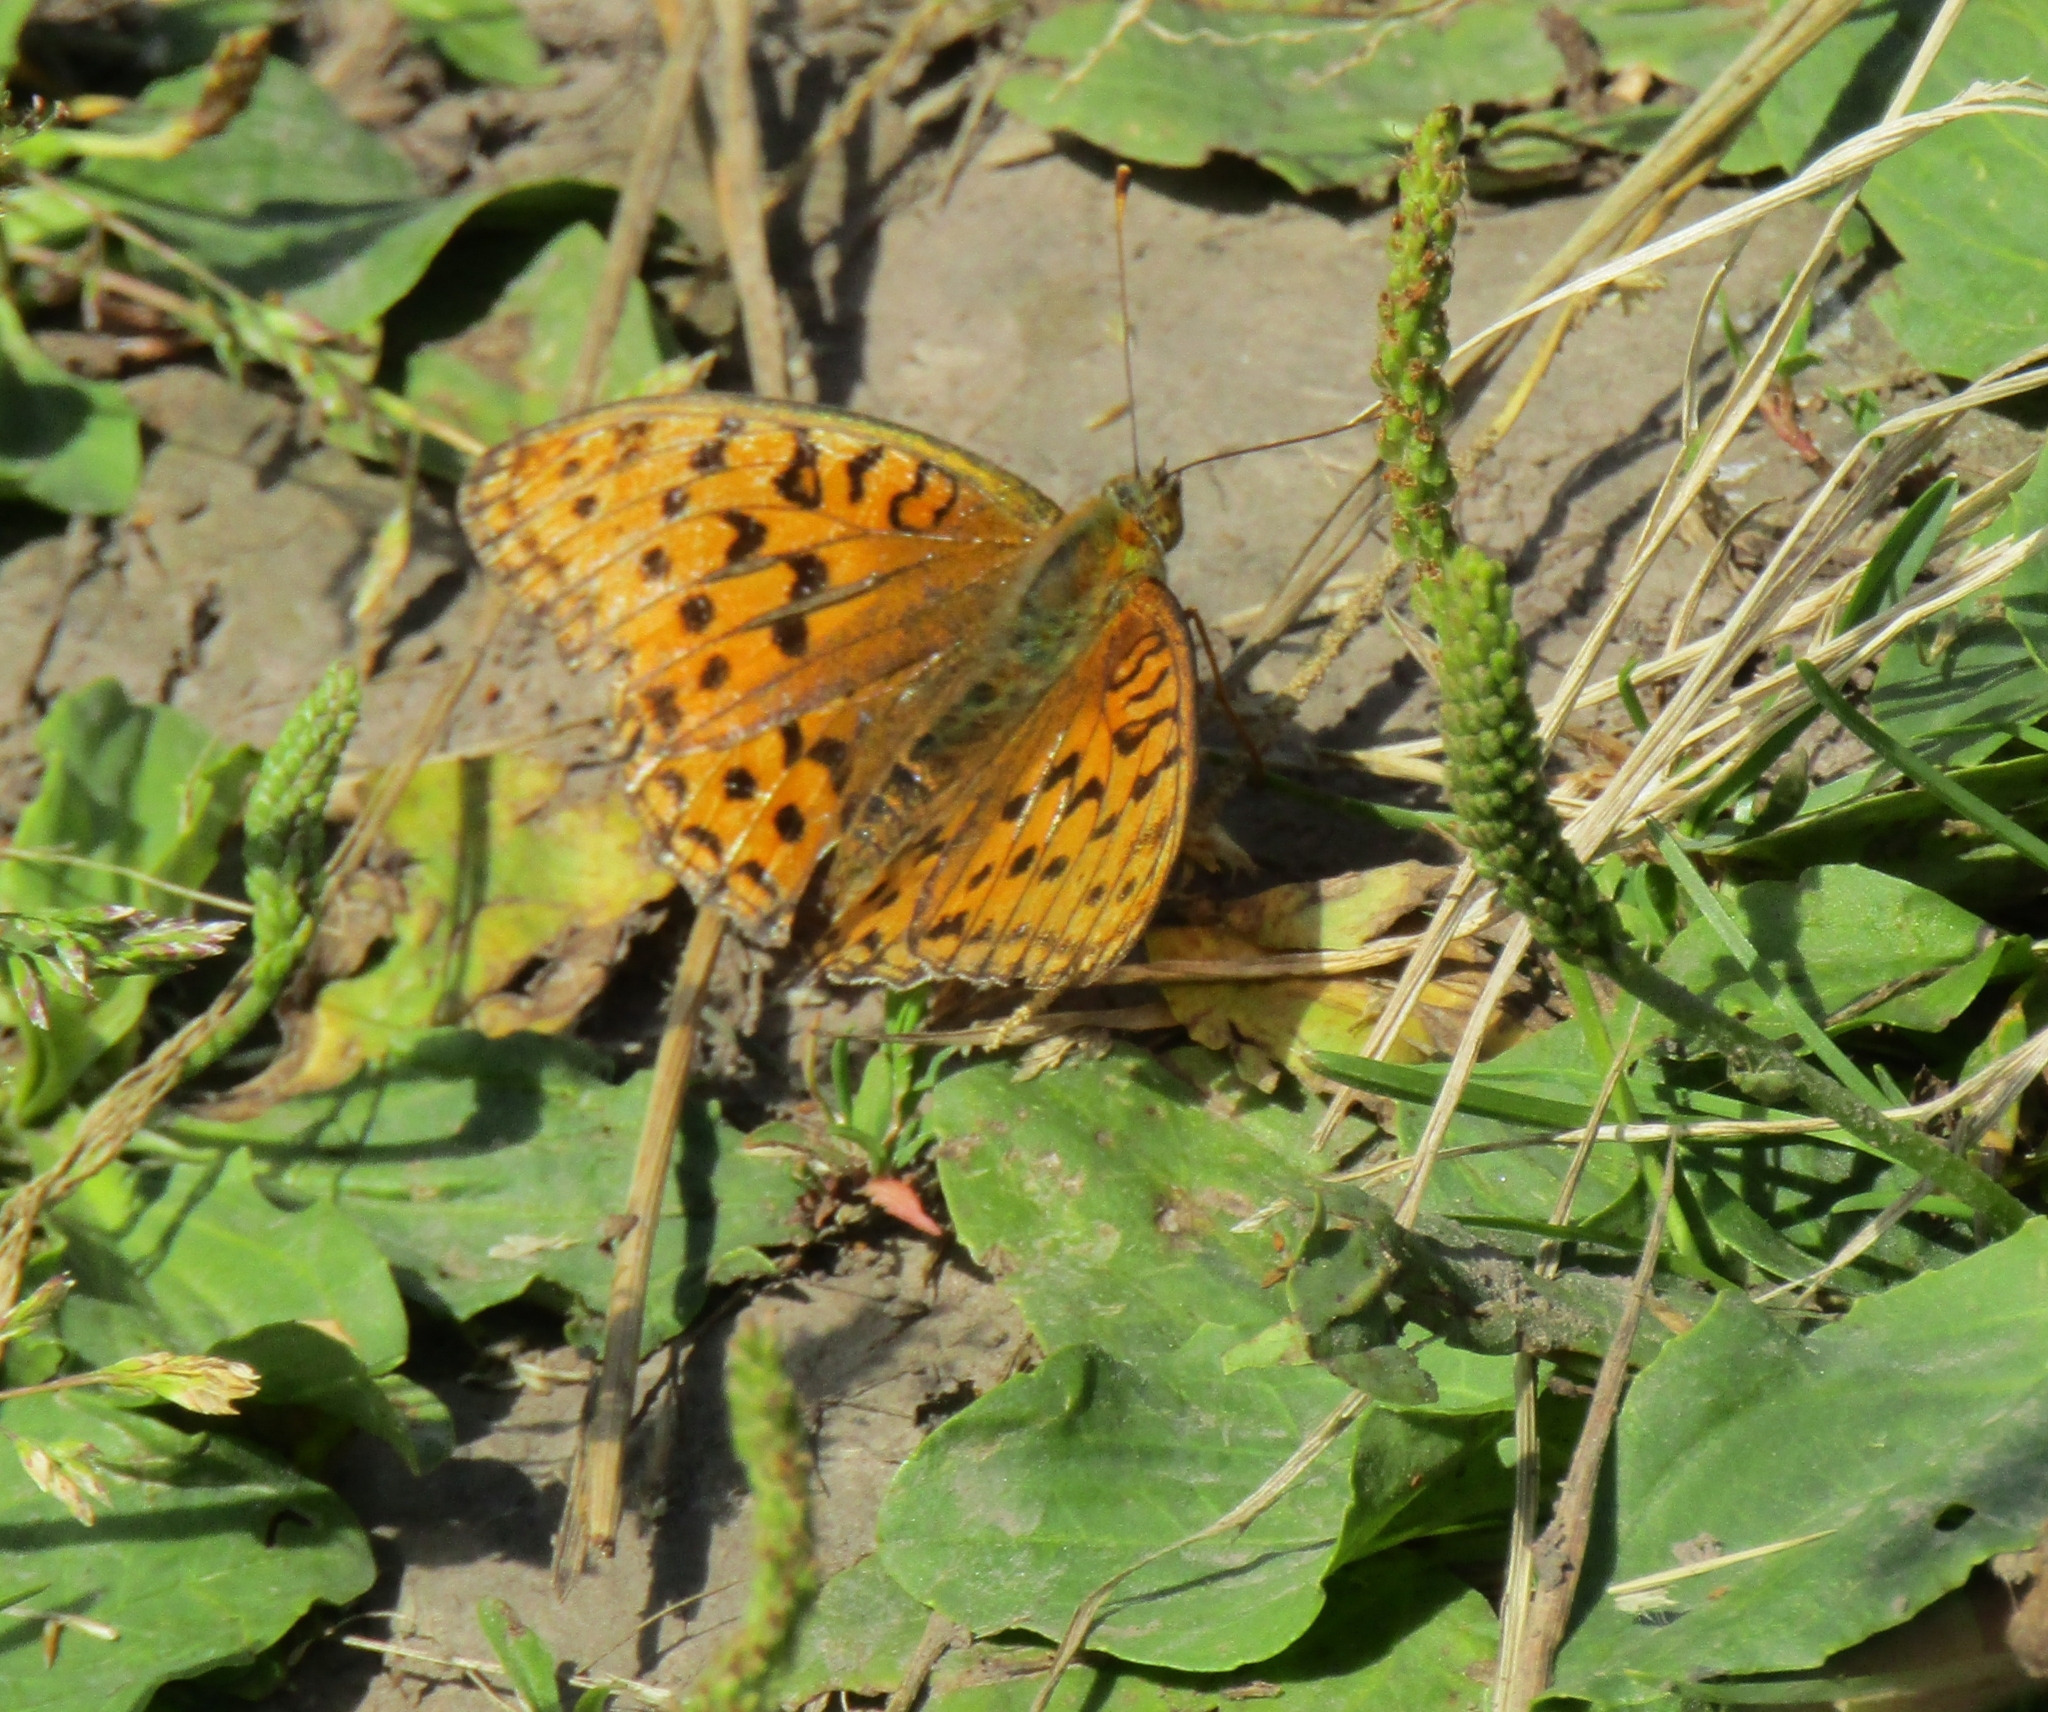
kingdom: Animalia
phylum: Arthropoda
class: Insecta
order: Lepidoptera
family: Nymphalidae
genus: Fabriciana
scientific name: Fabriciana adippe
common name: High brown fritillary
